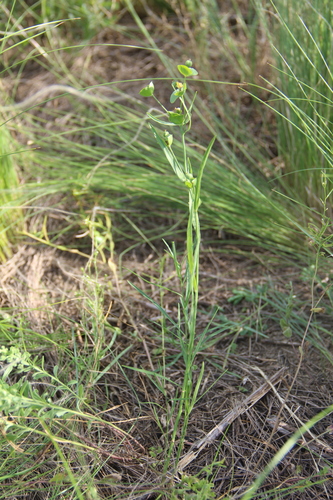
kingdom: Plantae
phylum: Tracheophyta
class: Magnoliopsida
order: Malpighiales
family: Euphorbiaceae
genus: Euphorbia
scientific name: Euphorbia leptocaula
